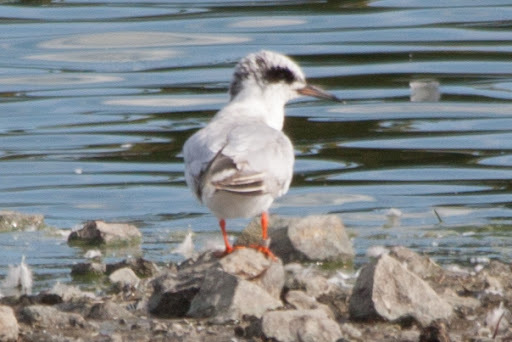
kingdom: Animalia
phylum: Chordata
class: Aves
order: Charadriiformes
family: Laridae
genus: Sterna
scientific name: Sterna forsteri
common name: Forster's tern
